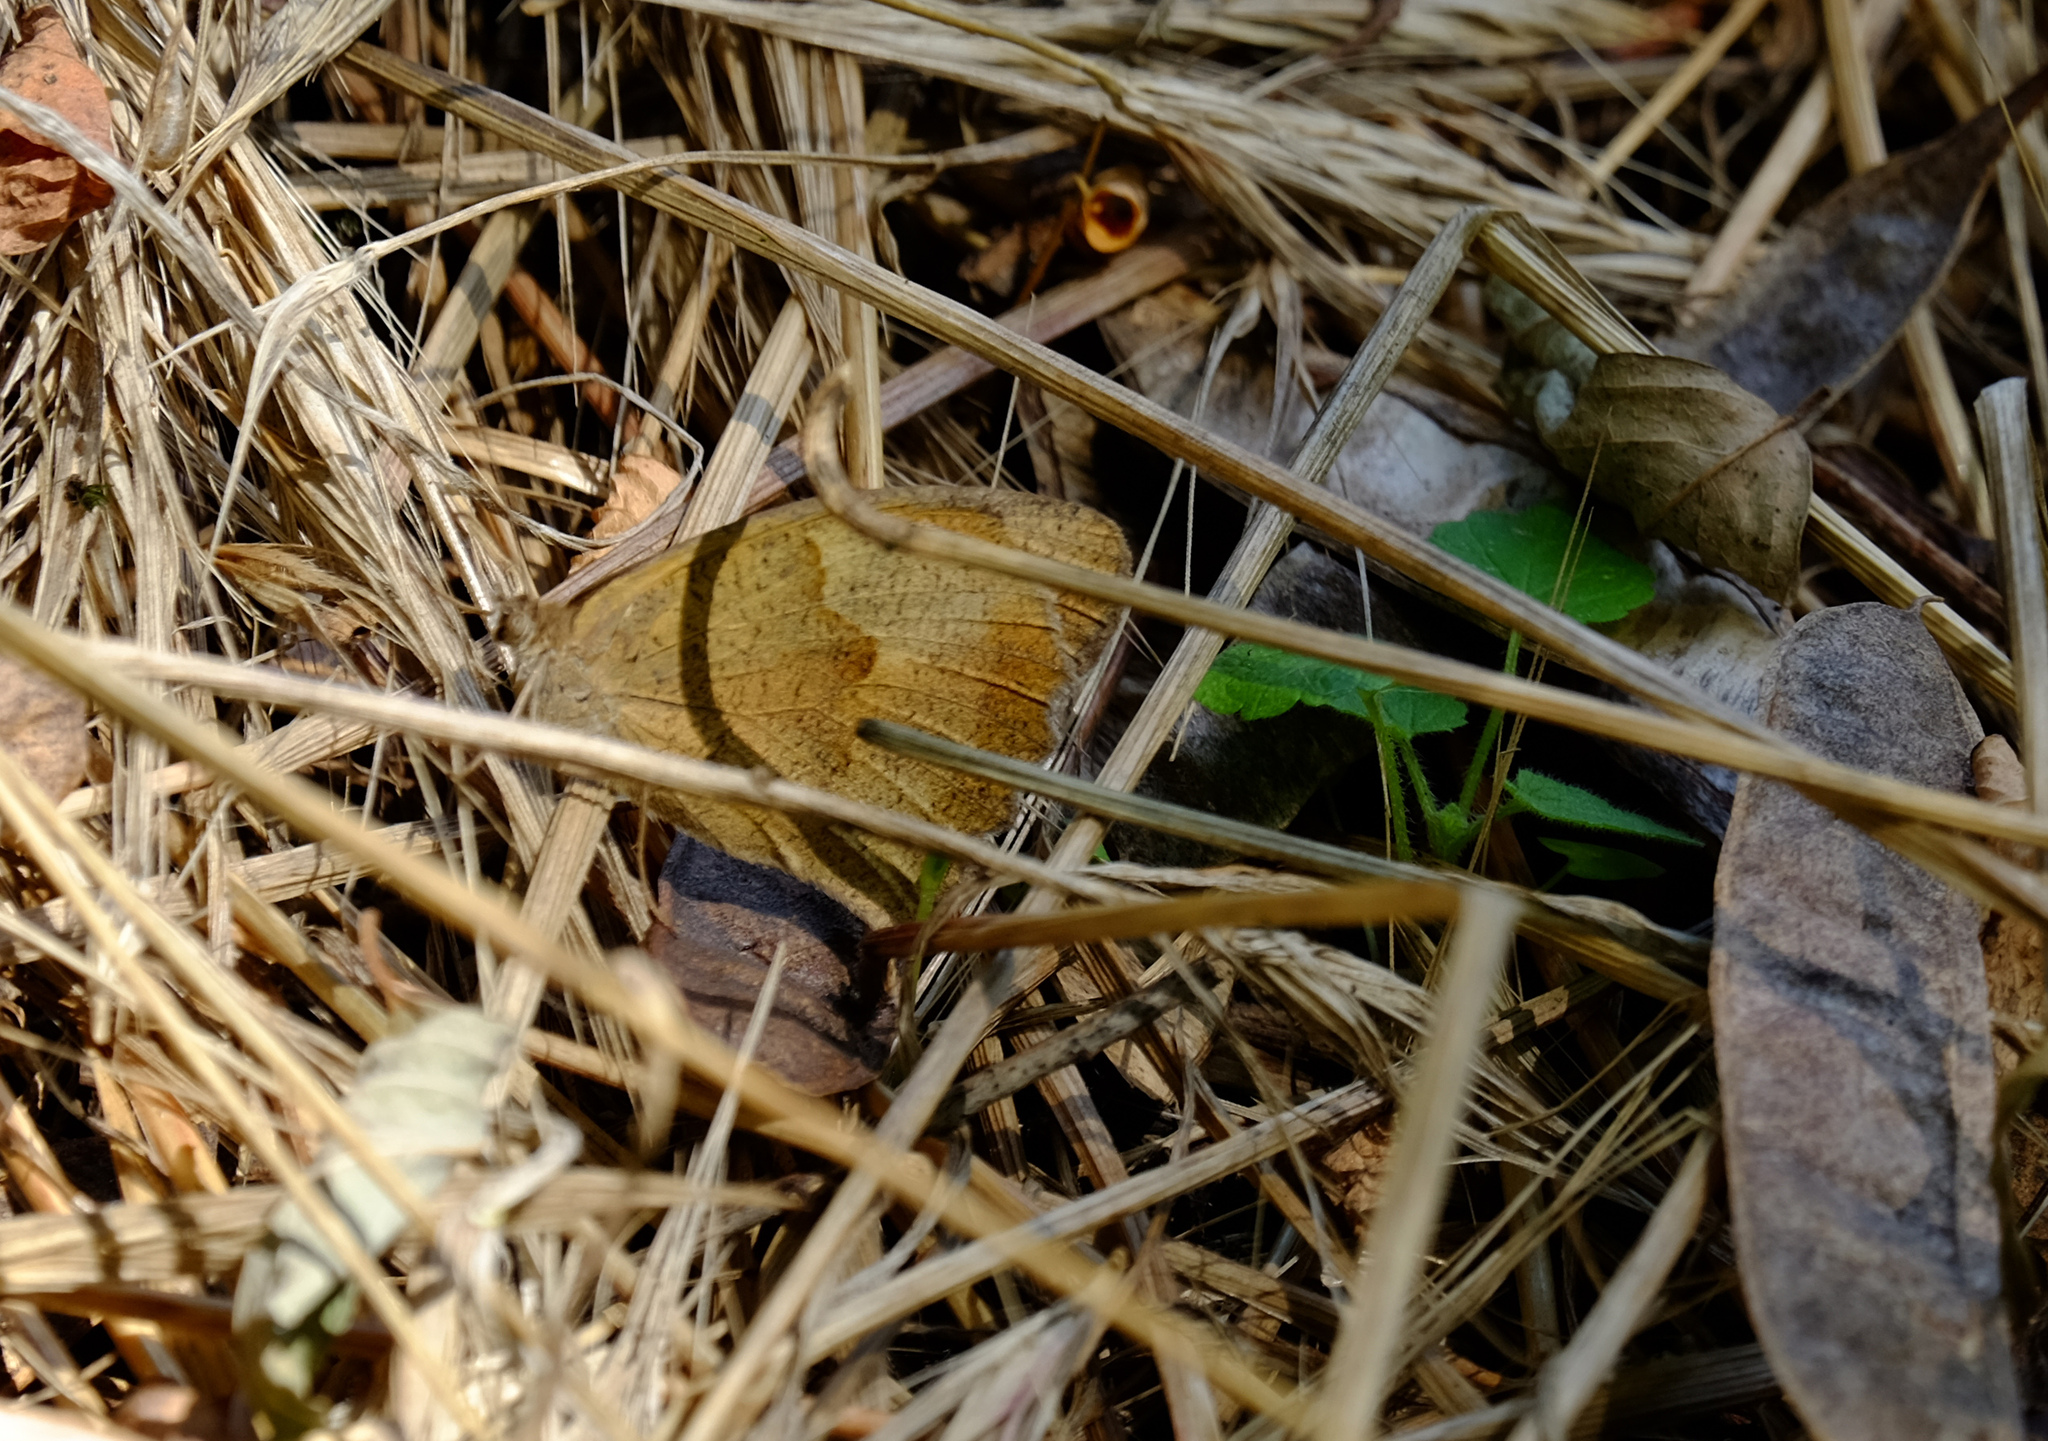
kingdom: Animalia
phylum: Arthropoda
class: Insecta
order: Lepidoptera
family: Nymphalidae
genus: Maniola
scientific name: Maniola jurtina
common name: Meadow brown
